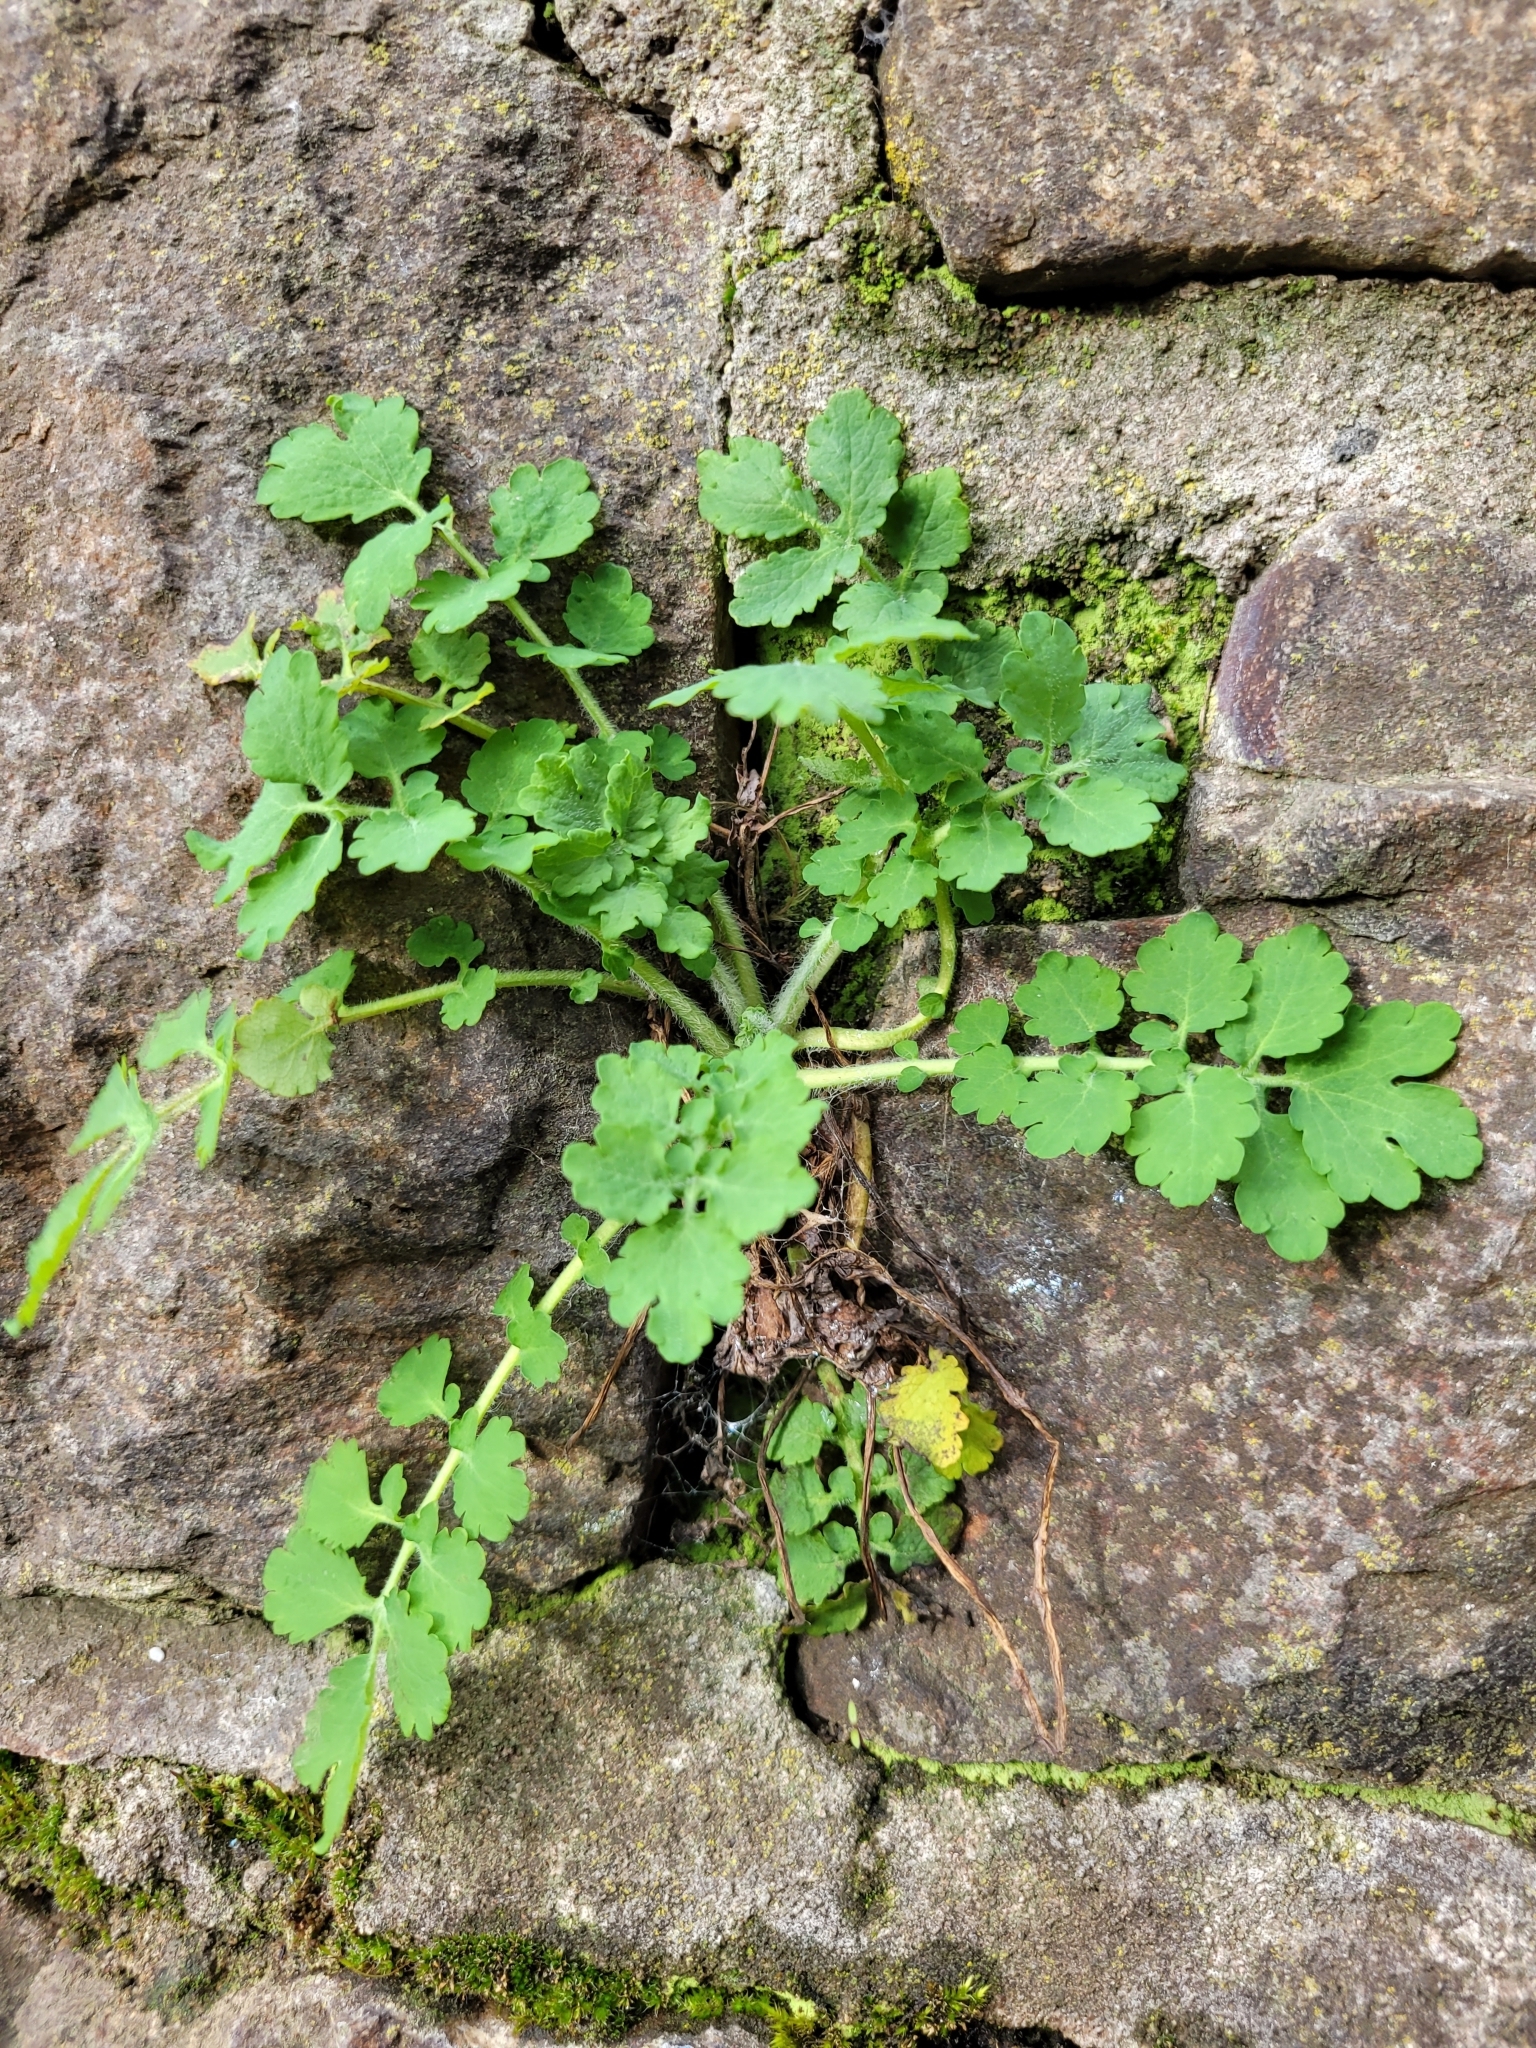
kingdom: Plantae
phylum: Tracheophyta
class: Magnoliopsida
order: Ranunculales
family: Papaveraceae
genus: Chelidonium
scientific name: Chelidonium majus
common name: Greater celandine
